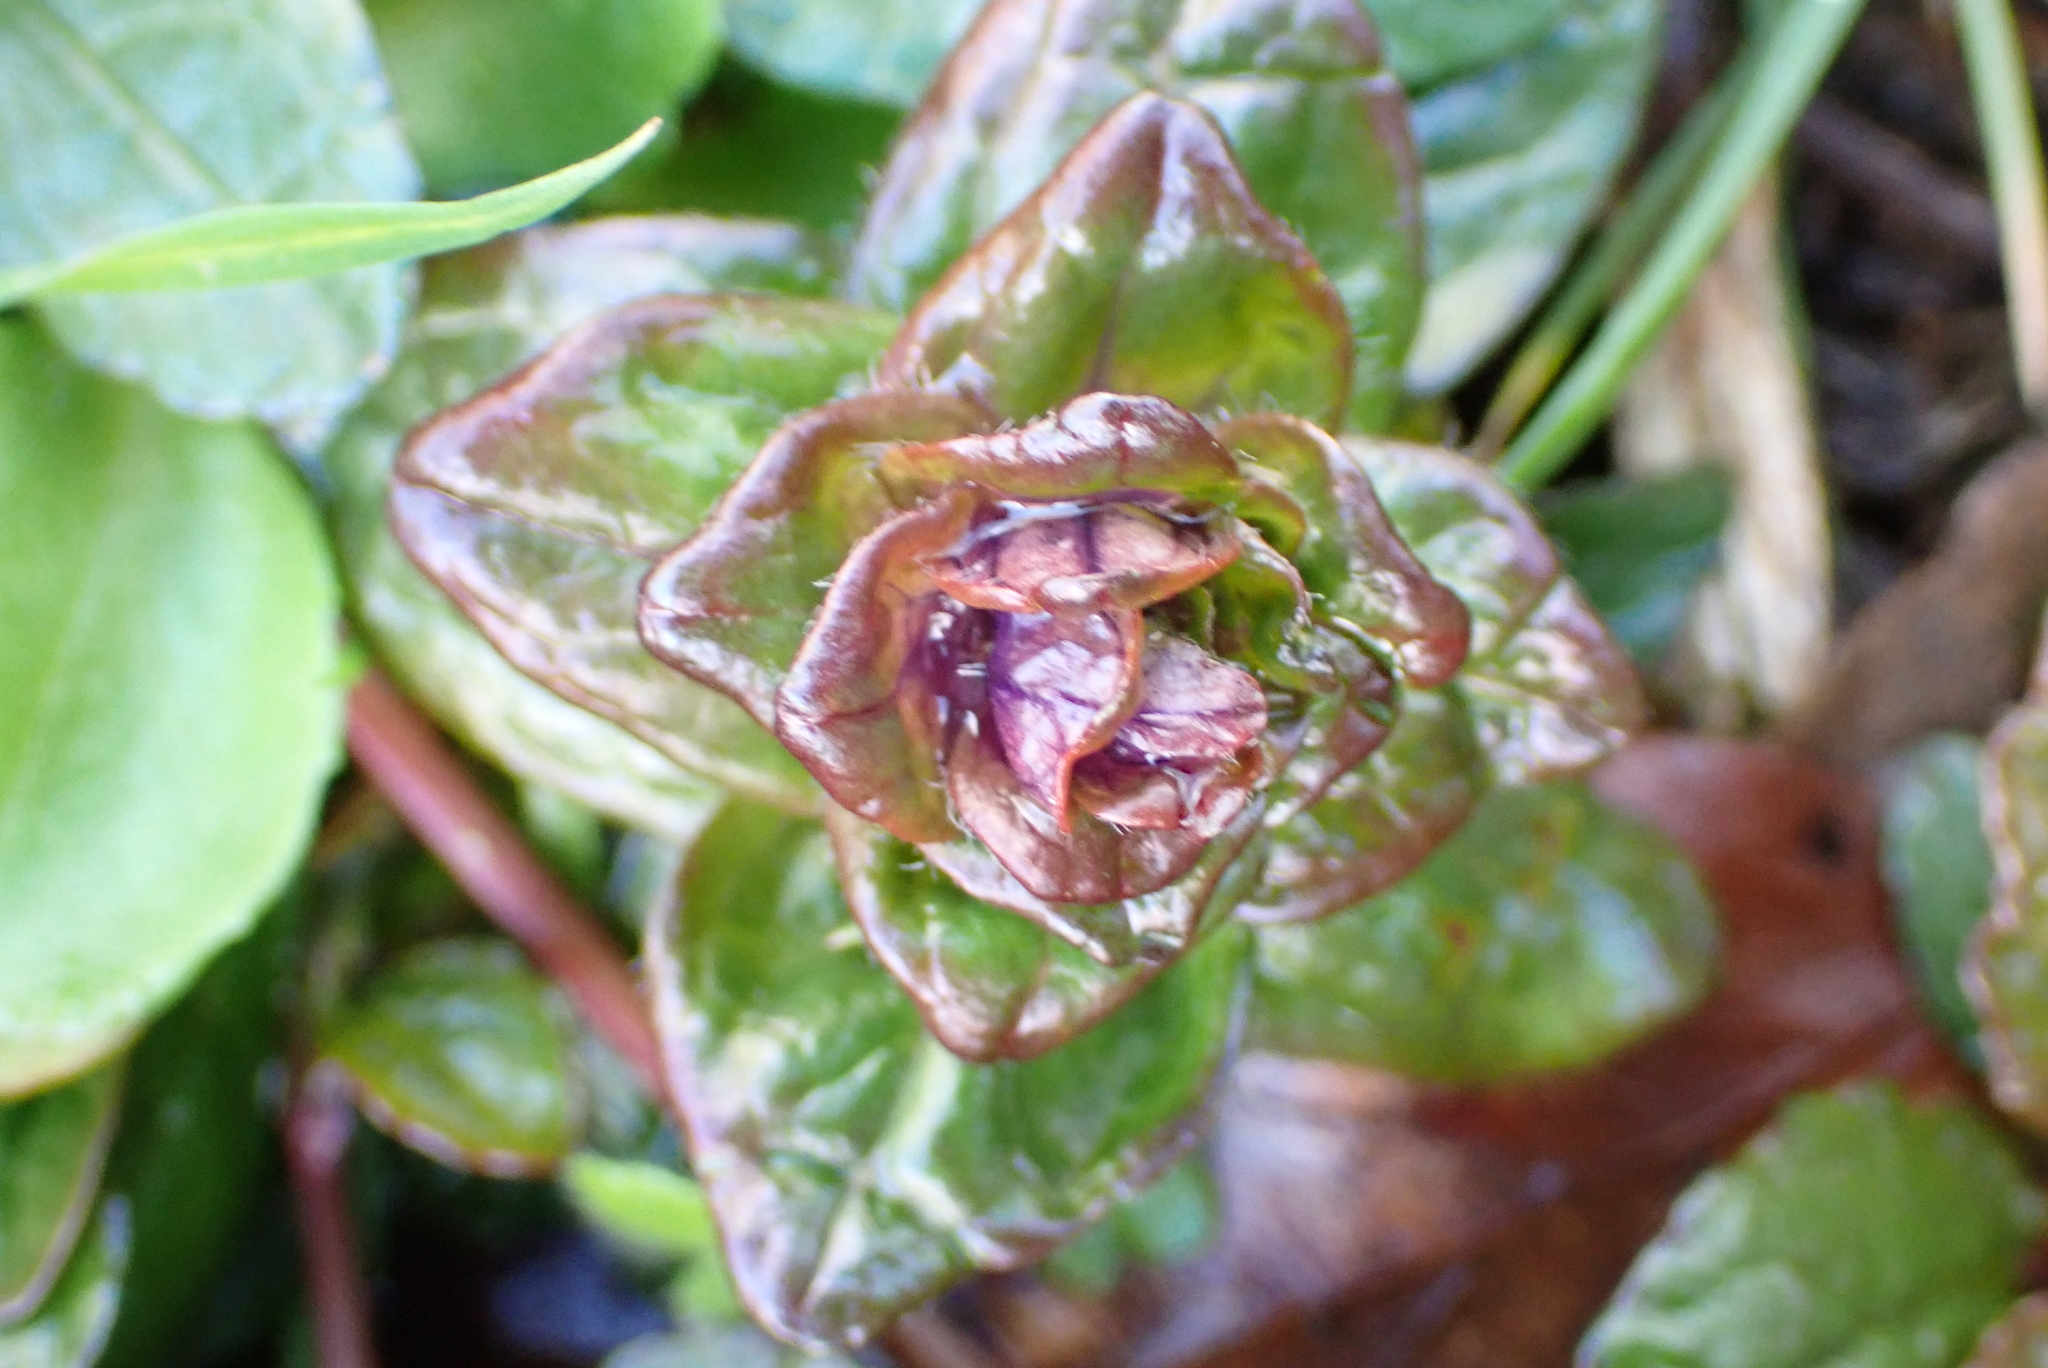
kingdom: Plantae
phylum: Tracheophyta
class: Magnoliopsida
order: Lamiales
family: Lamiaceae
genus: Ajuga
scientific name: Ajuga reptans
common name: Bugle
